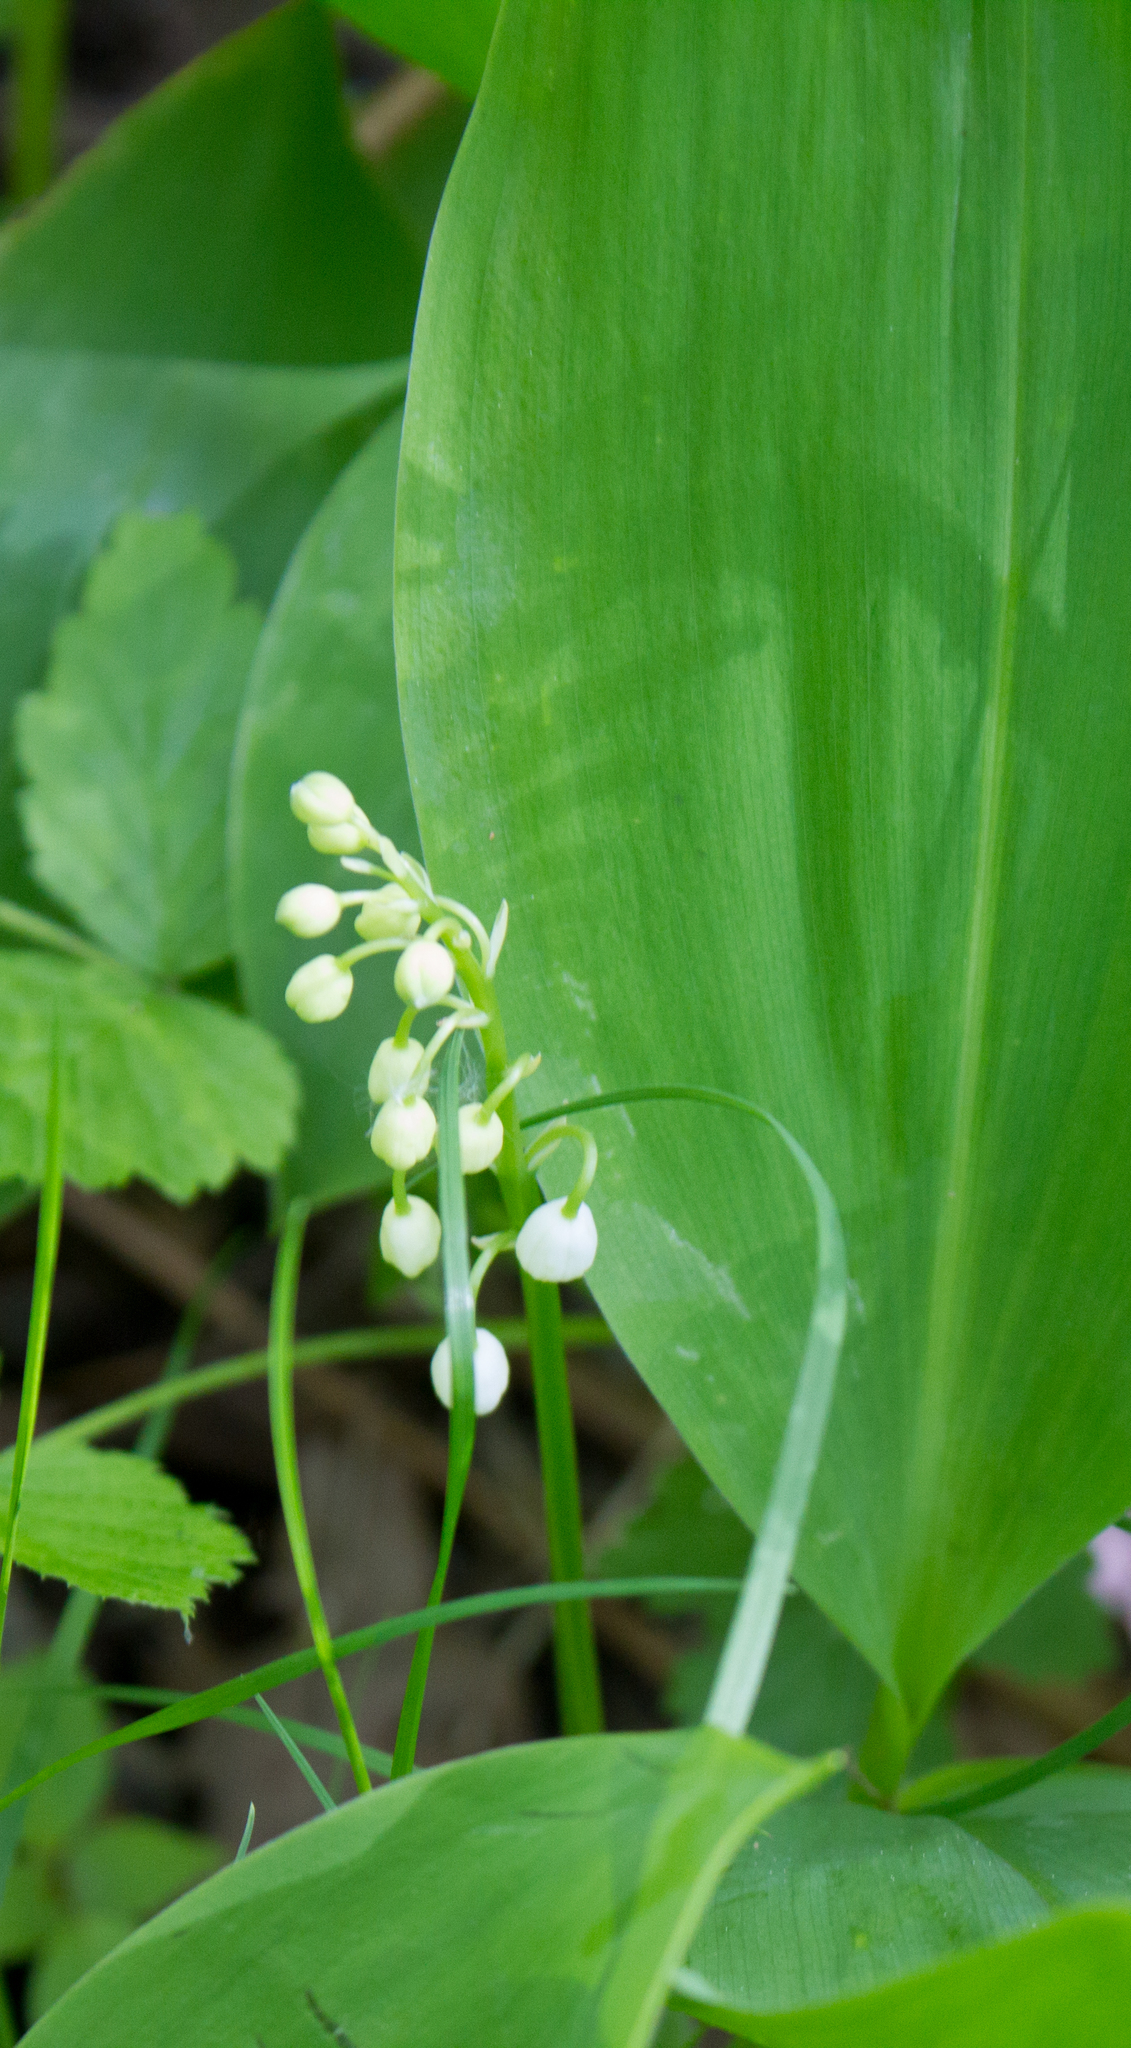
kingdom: Plantae
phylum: Tracheophyta
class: Liliopsida
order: Asparagales
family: Asparagaceae
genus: Convallaria
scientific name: Convallaria majalis
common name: Lily-of-the-valley
